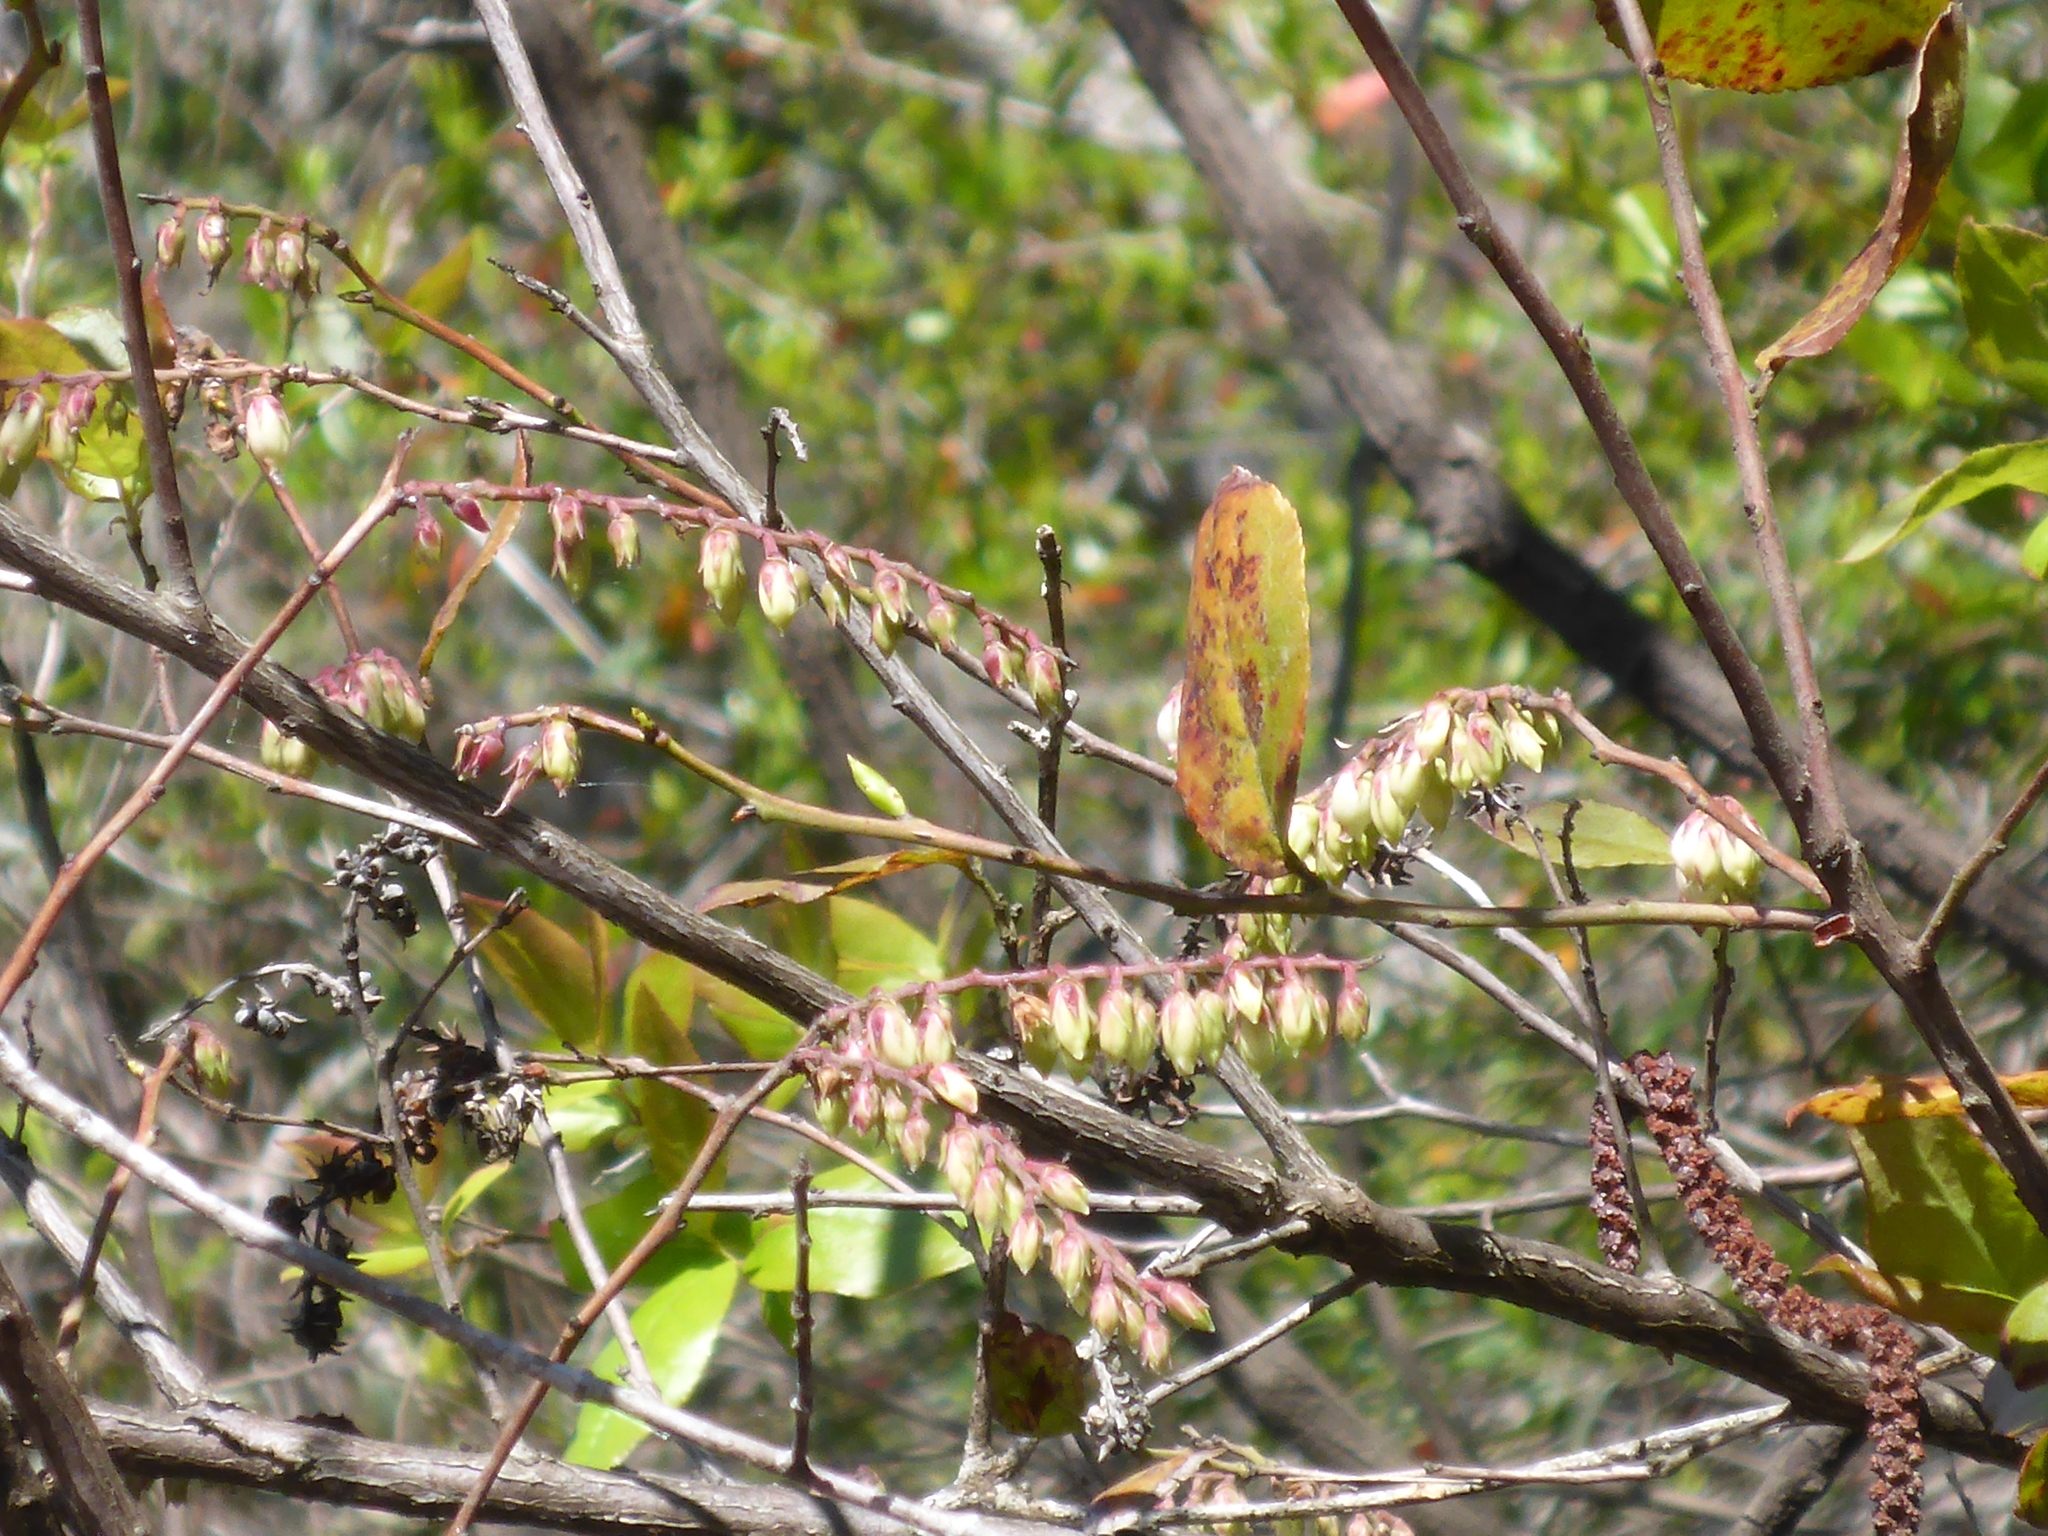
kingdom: Plantae
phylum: Tracheophyta
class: Magnoliopsida
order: Ericales
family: Ericaceae
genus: Eubotrys
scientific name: Eubotrys racemosa
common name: Fetterbush
